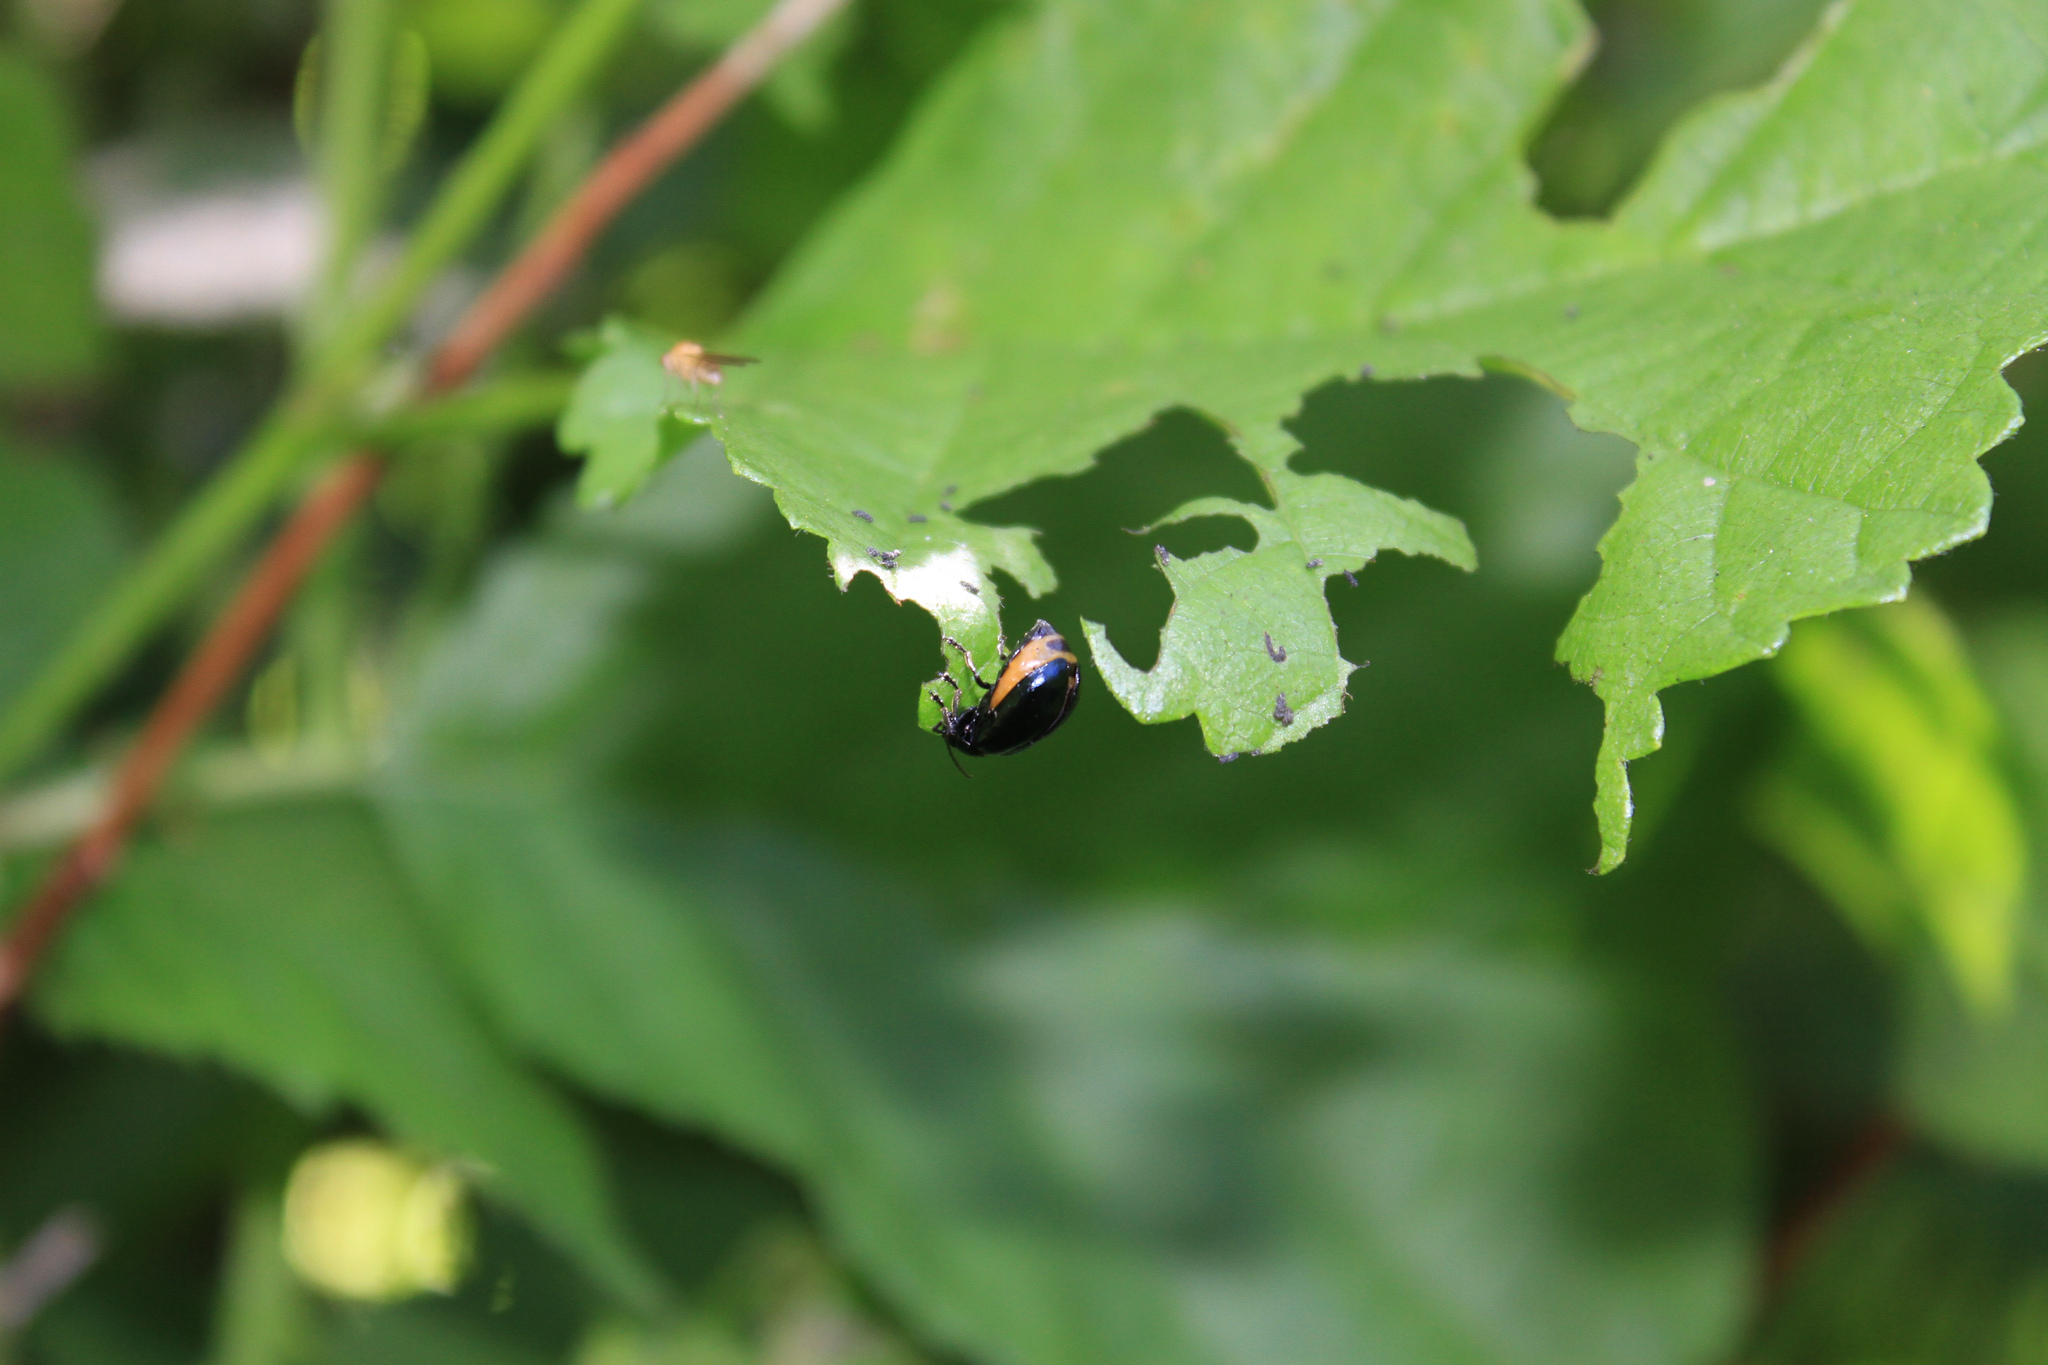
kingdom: Animalia
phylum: Arthropoda
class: Insecta
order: Coleoptera
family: Chrysomelidae
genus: Agelastica
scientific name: Agelastica alni
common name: Alder leaf beetle
